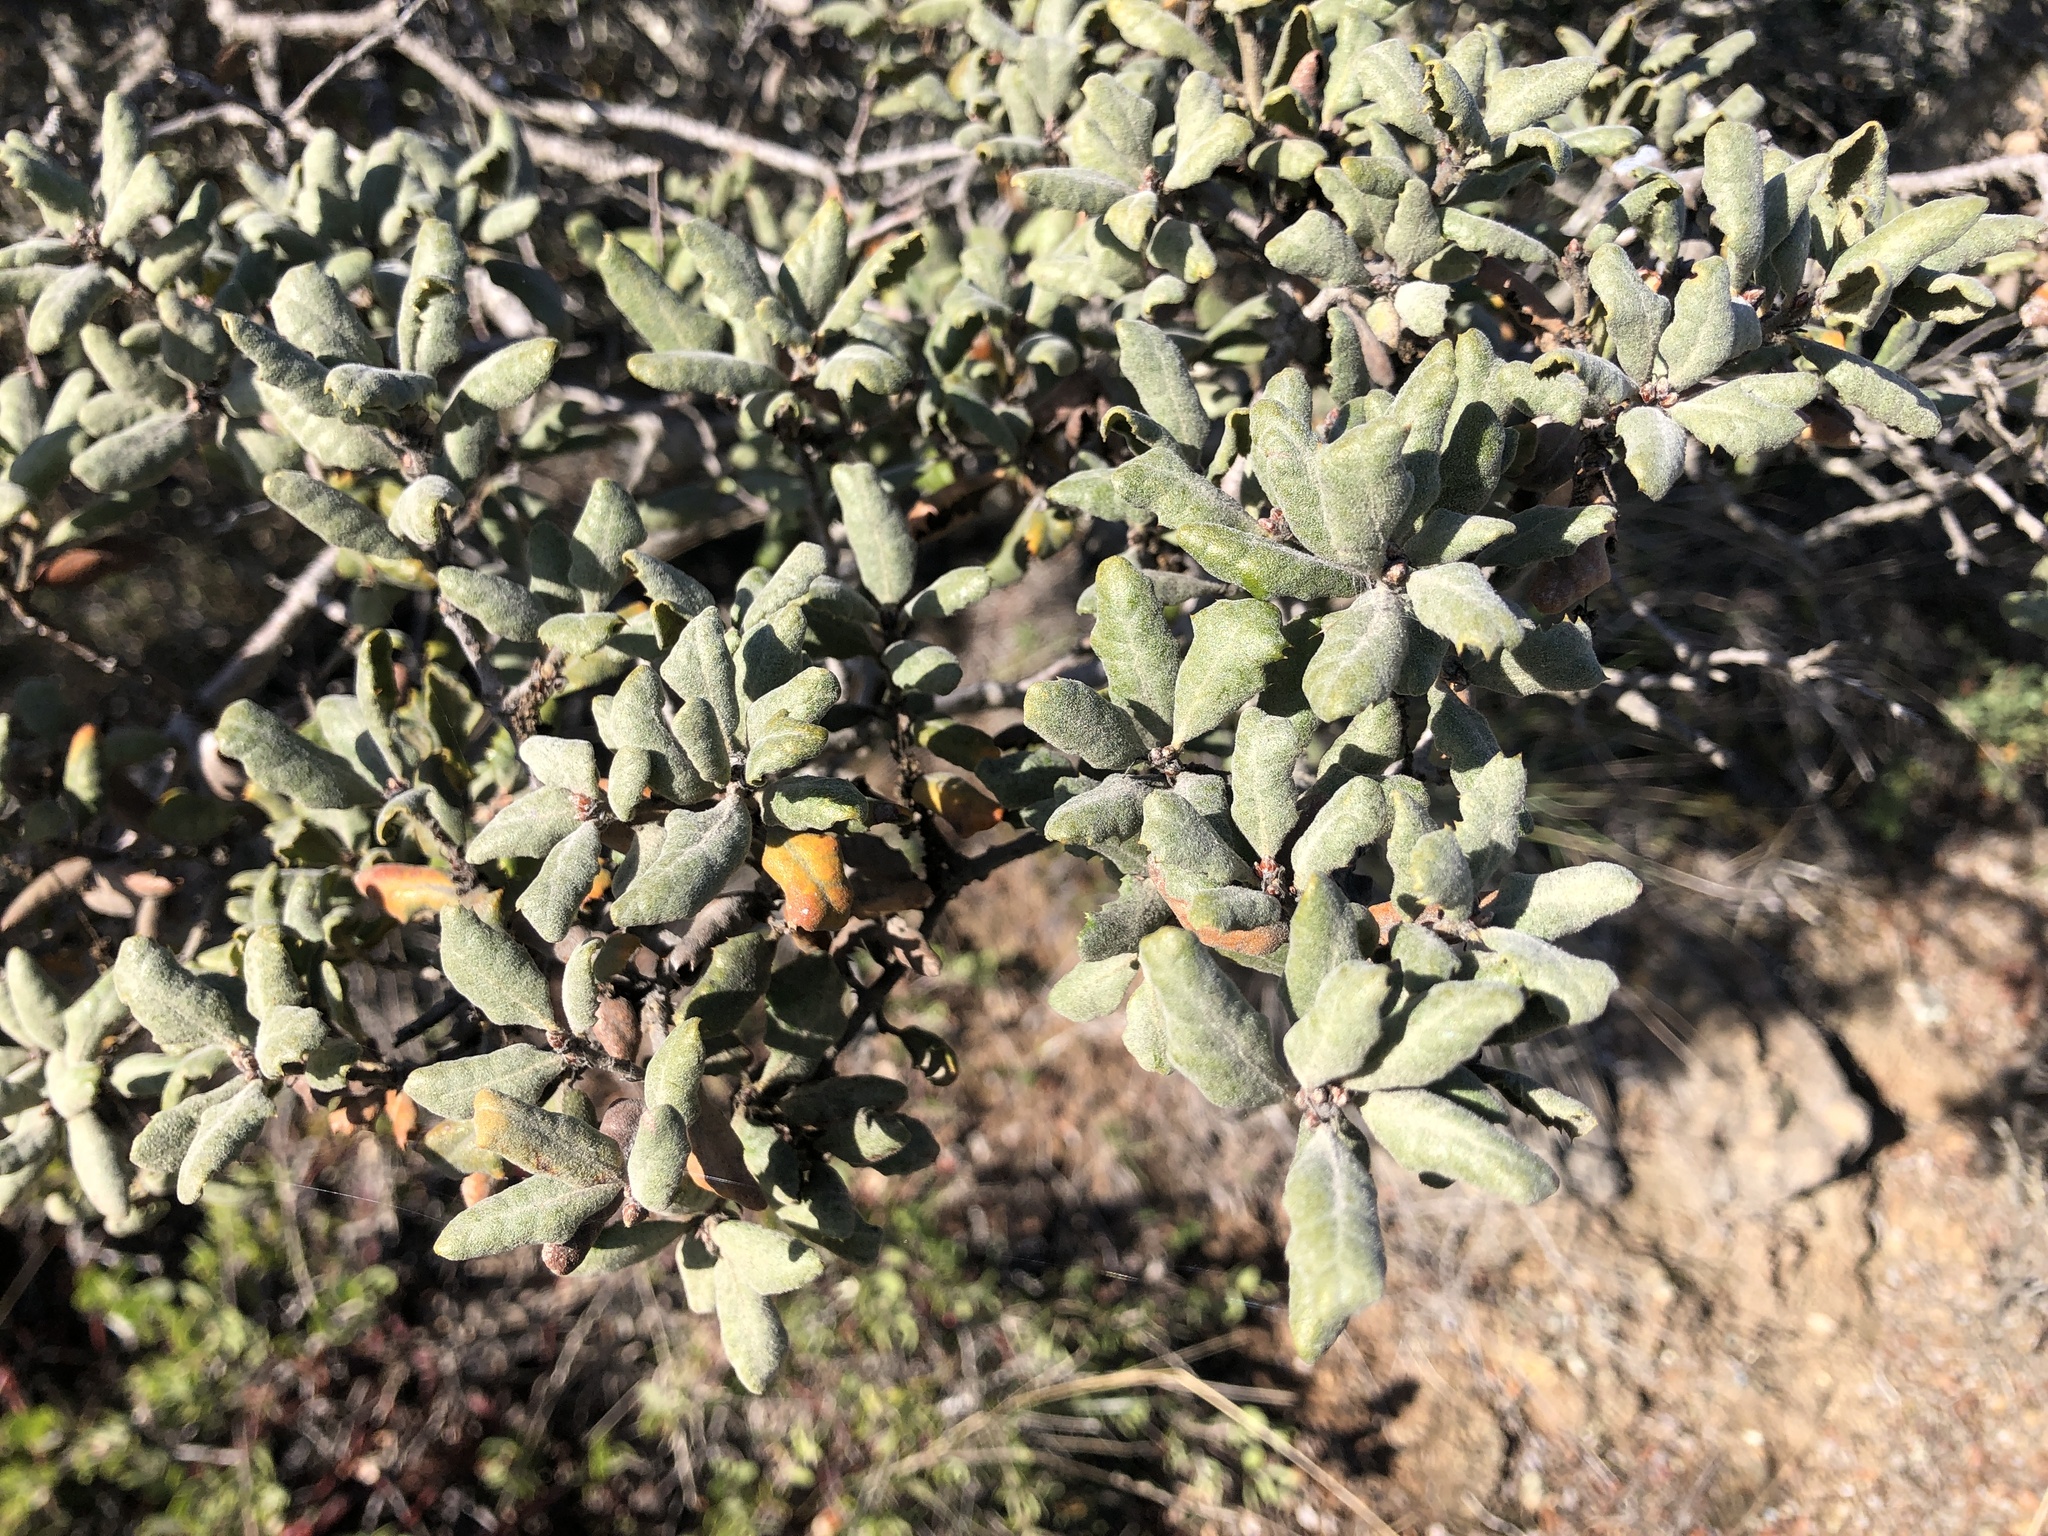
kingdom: Plantae
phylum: Tracheophyta
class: Magnoliopsida
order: Fagales
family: Fagaceae
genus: Quercus
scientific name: Quercus durata
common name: Leather oak
